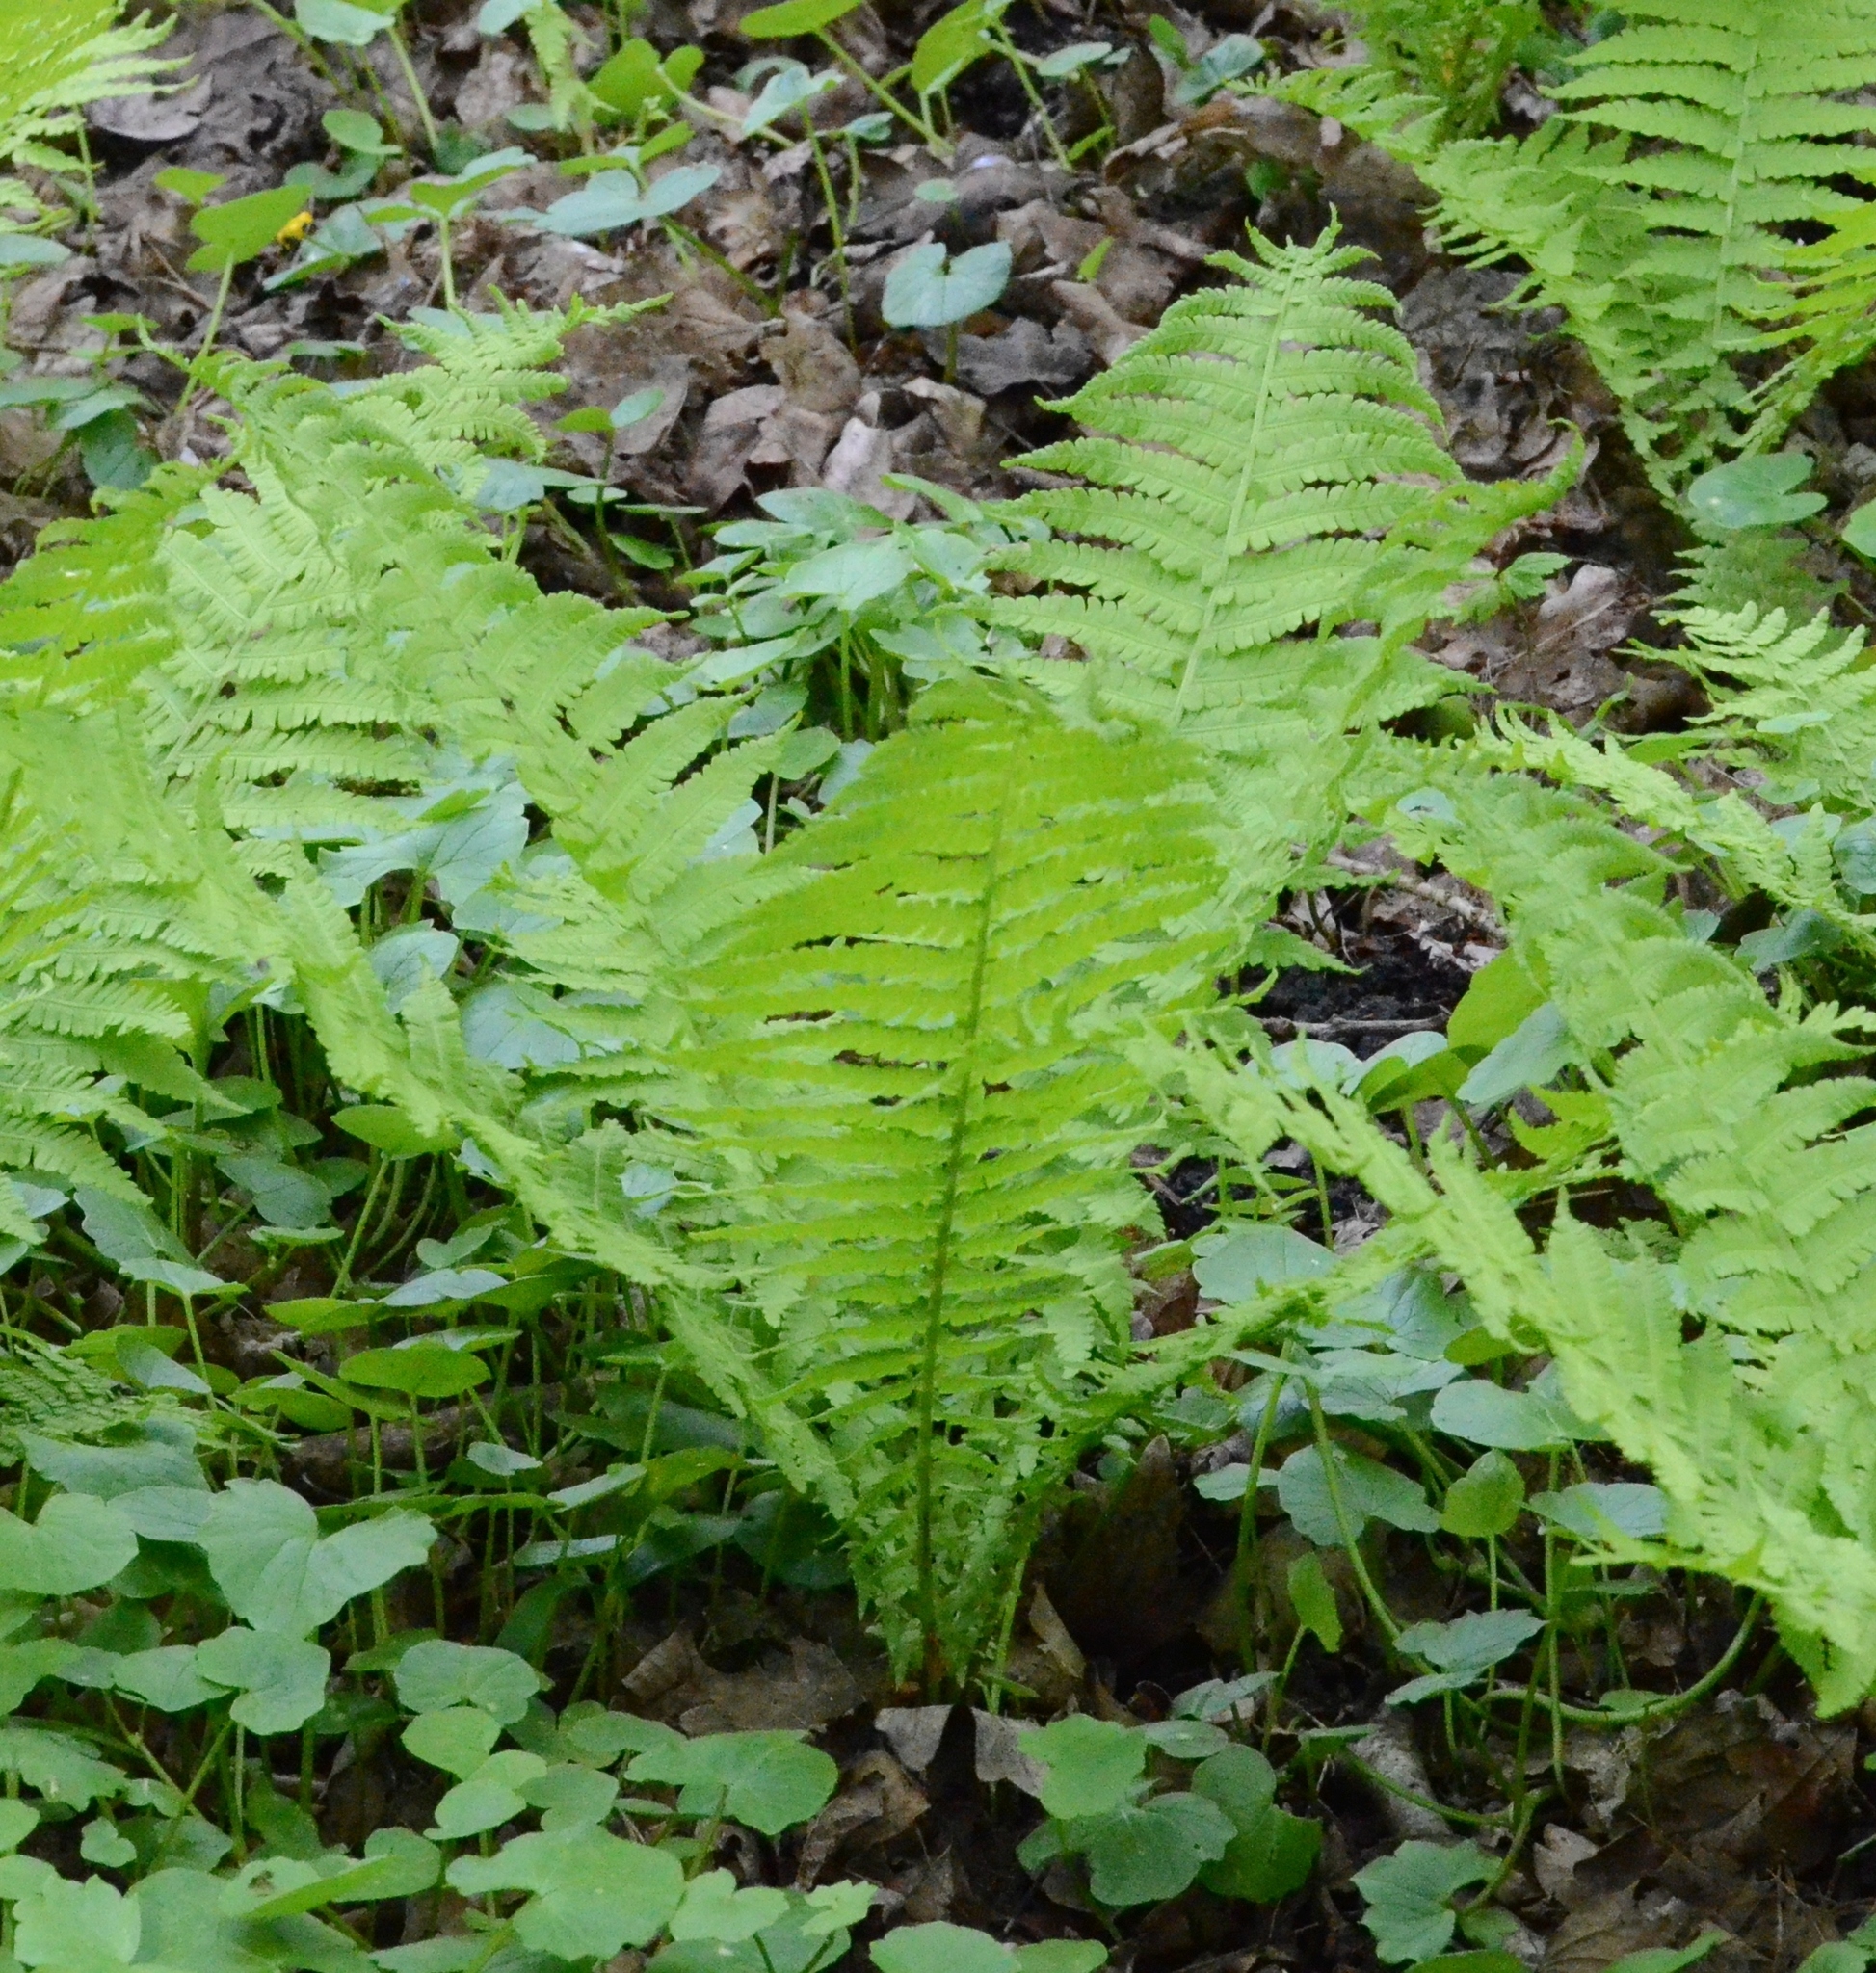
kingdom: Plantae
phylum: Tracheophyta
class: Polypodiopsida
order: Polypodiales
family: Onocleaceae
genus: Matteuccia
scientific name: Matteuccia struthiopteris
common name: Ostrich fern
